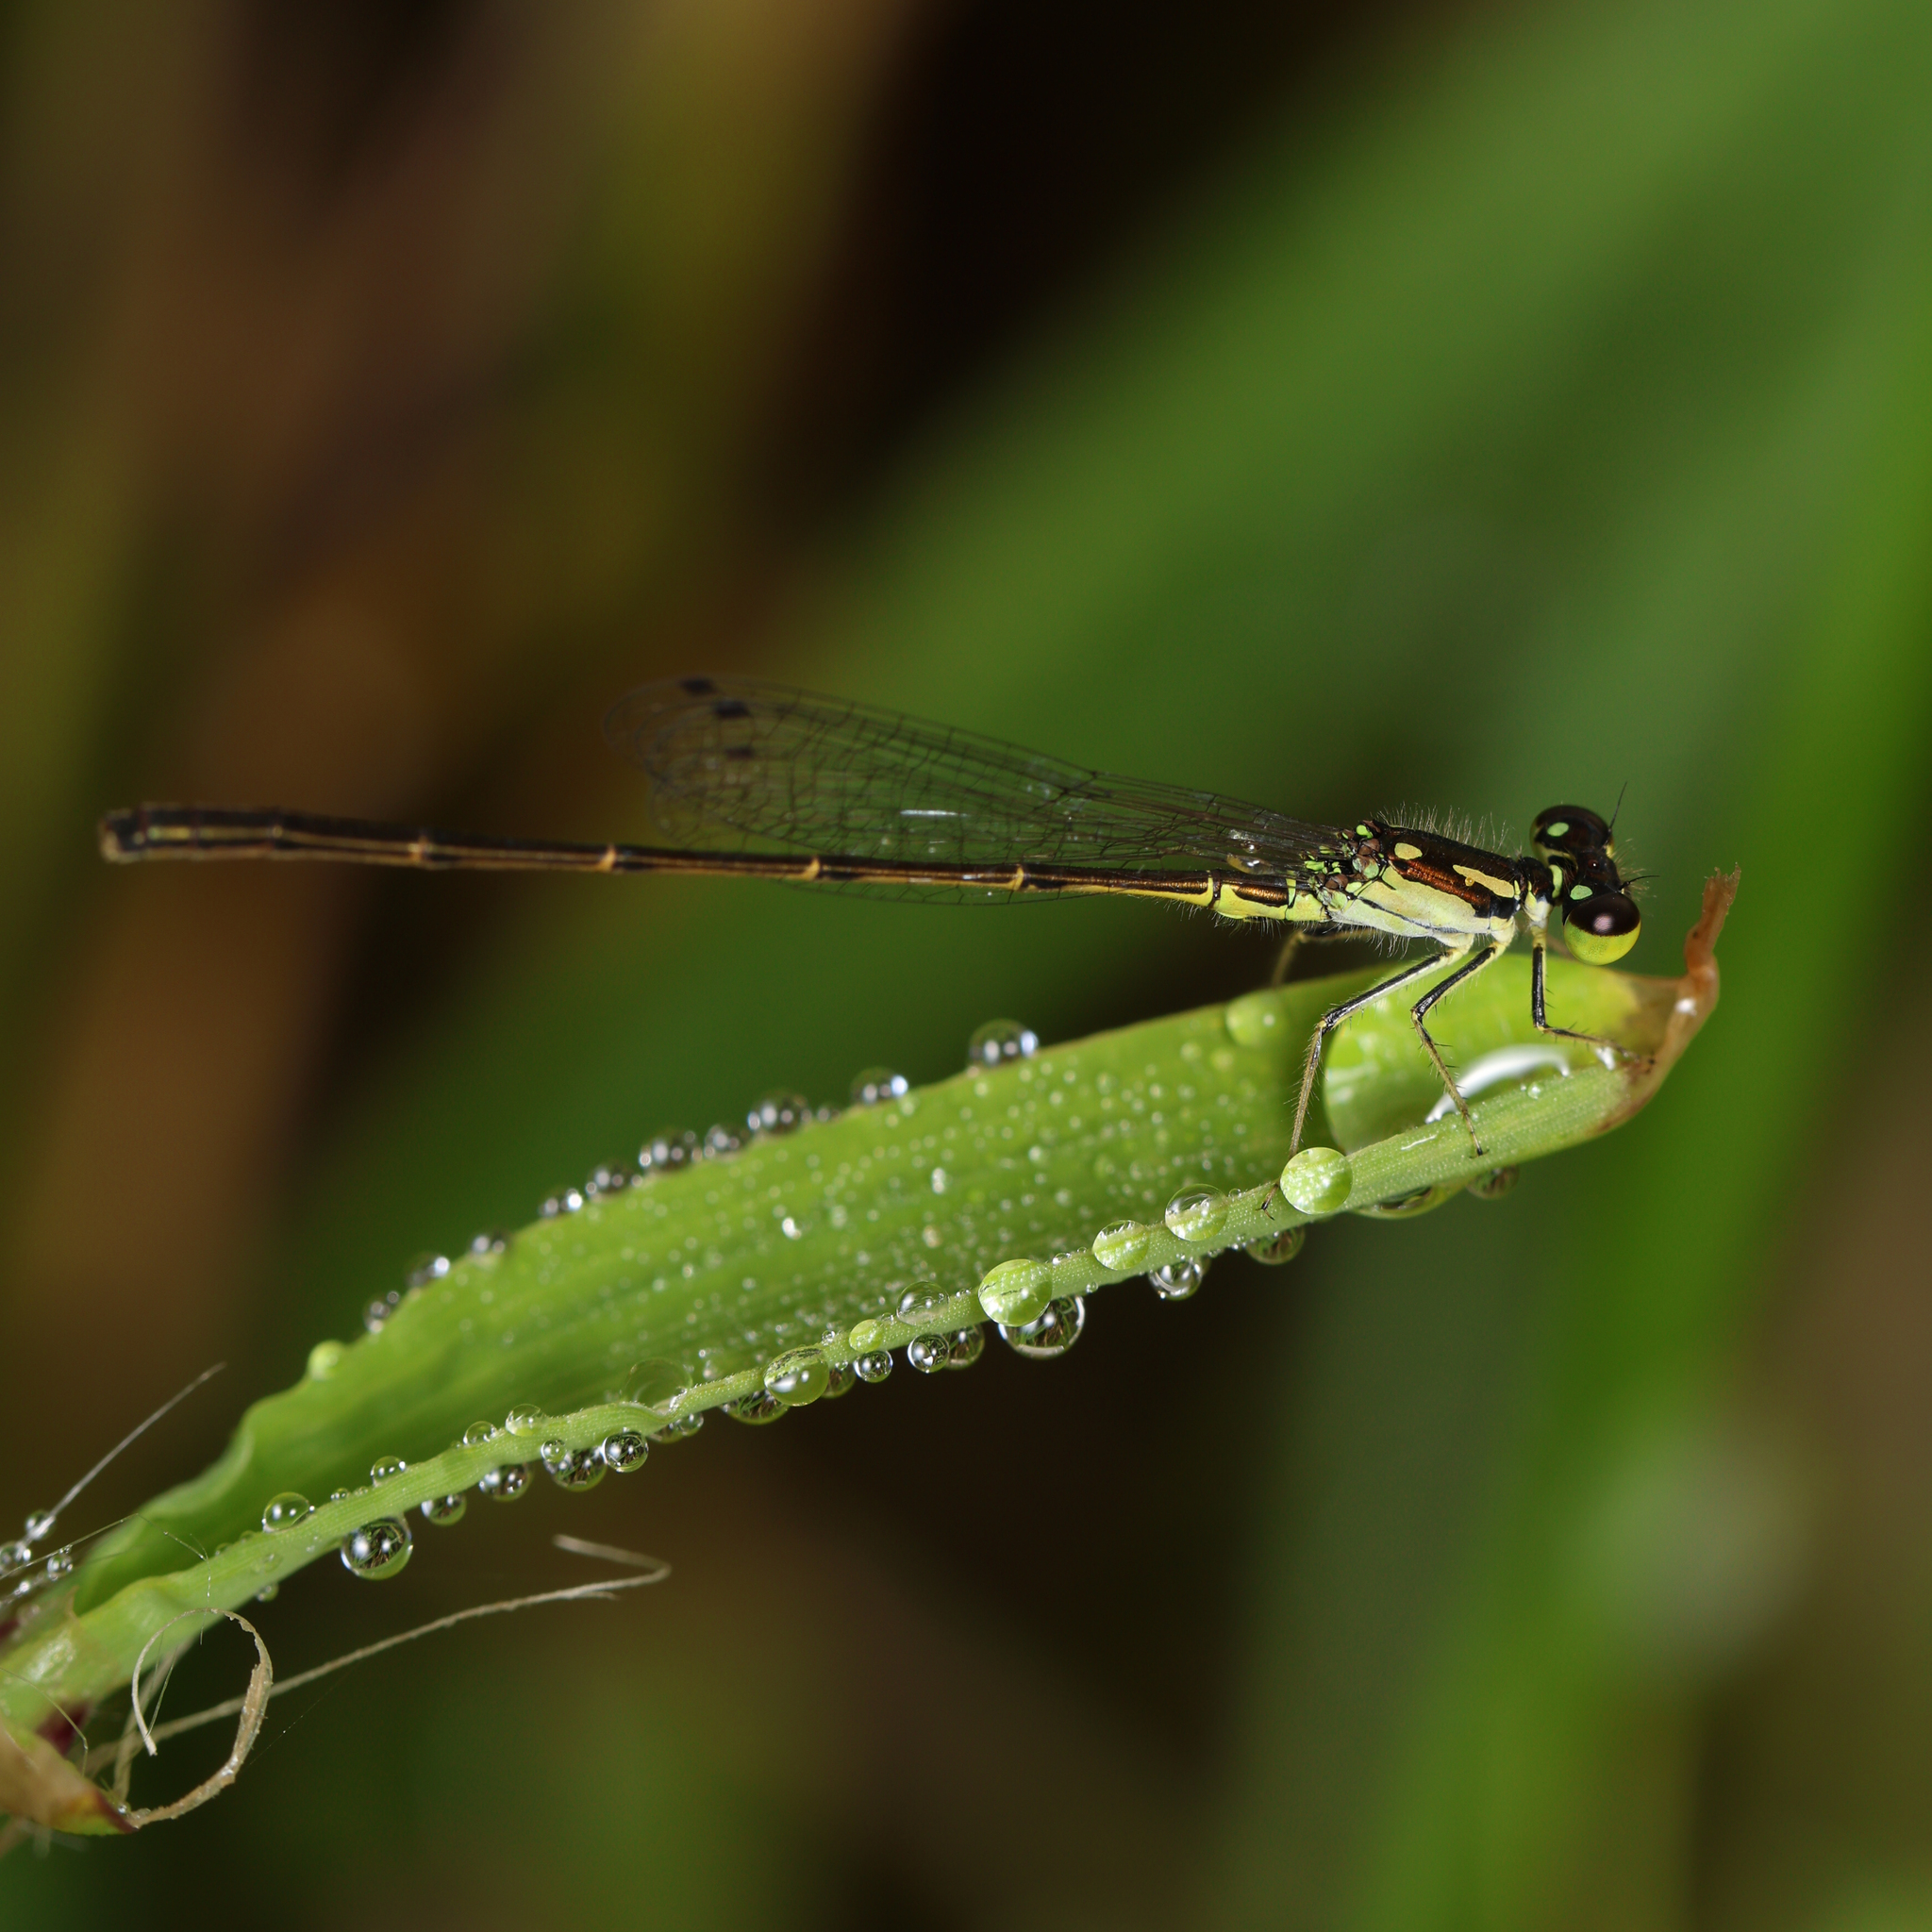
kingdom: Animalia
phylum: Arthropoda
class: Insecta
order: Odonata
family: Coenagrionidae
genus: Ischnura
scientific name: Ischnura posita
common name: Fragile forktail
